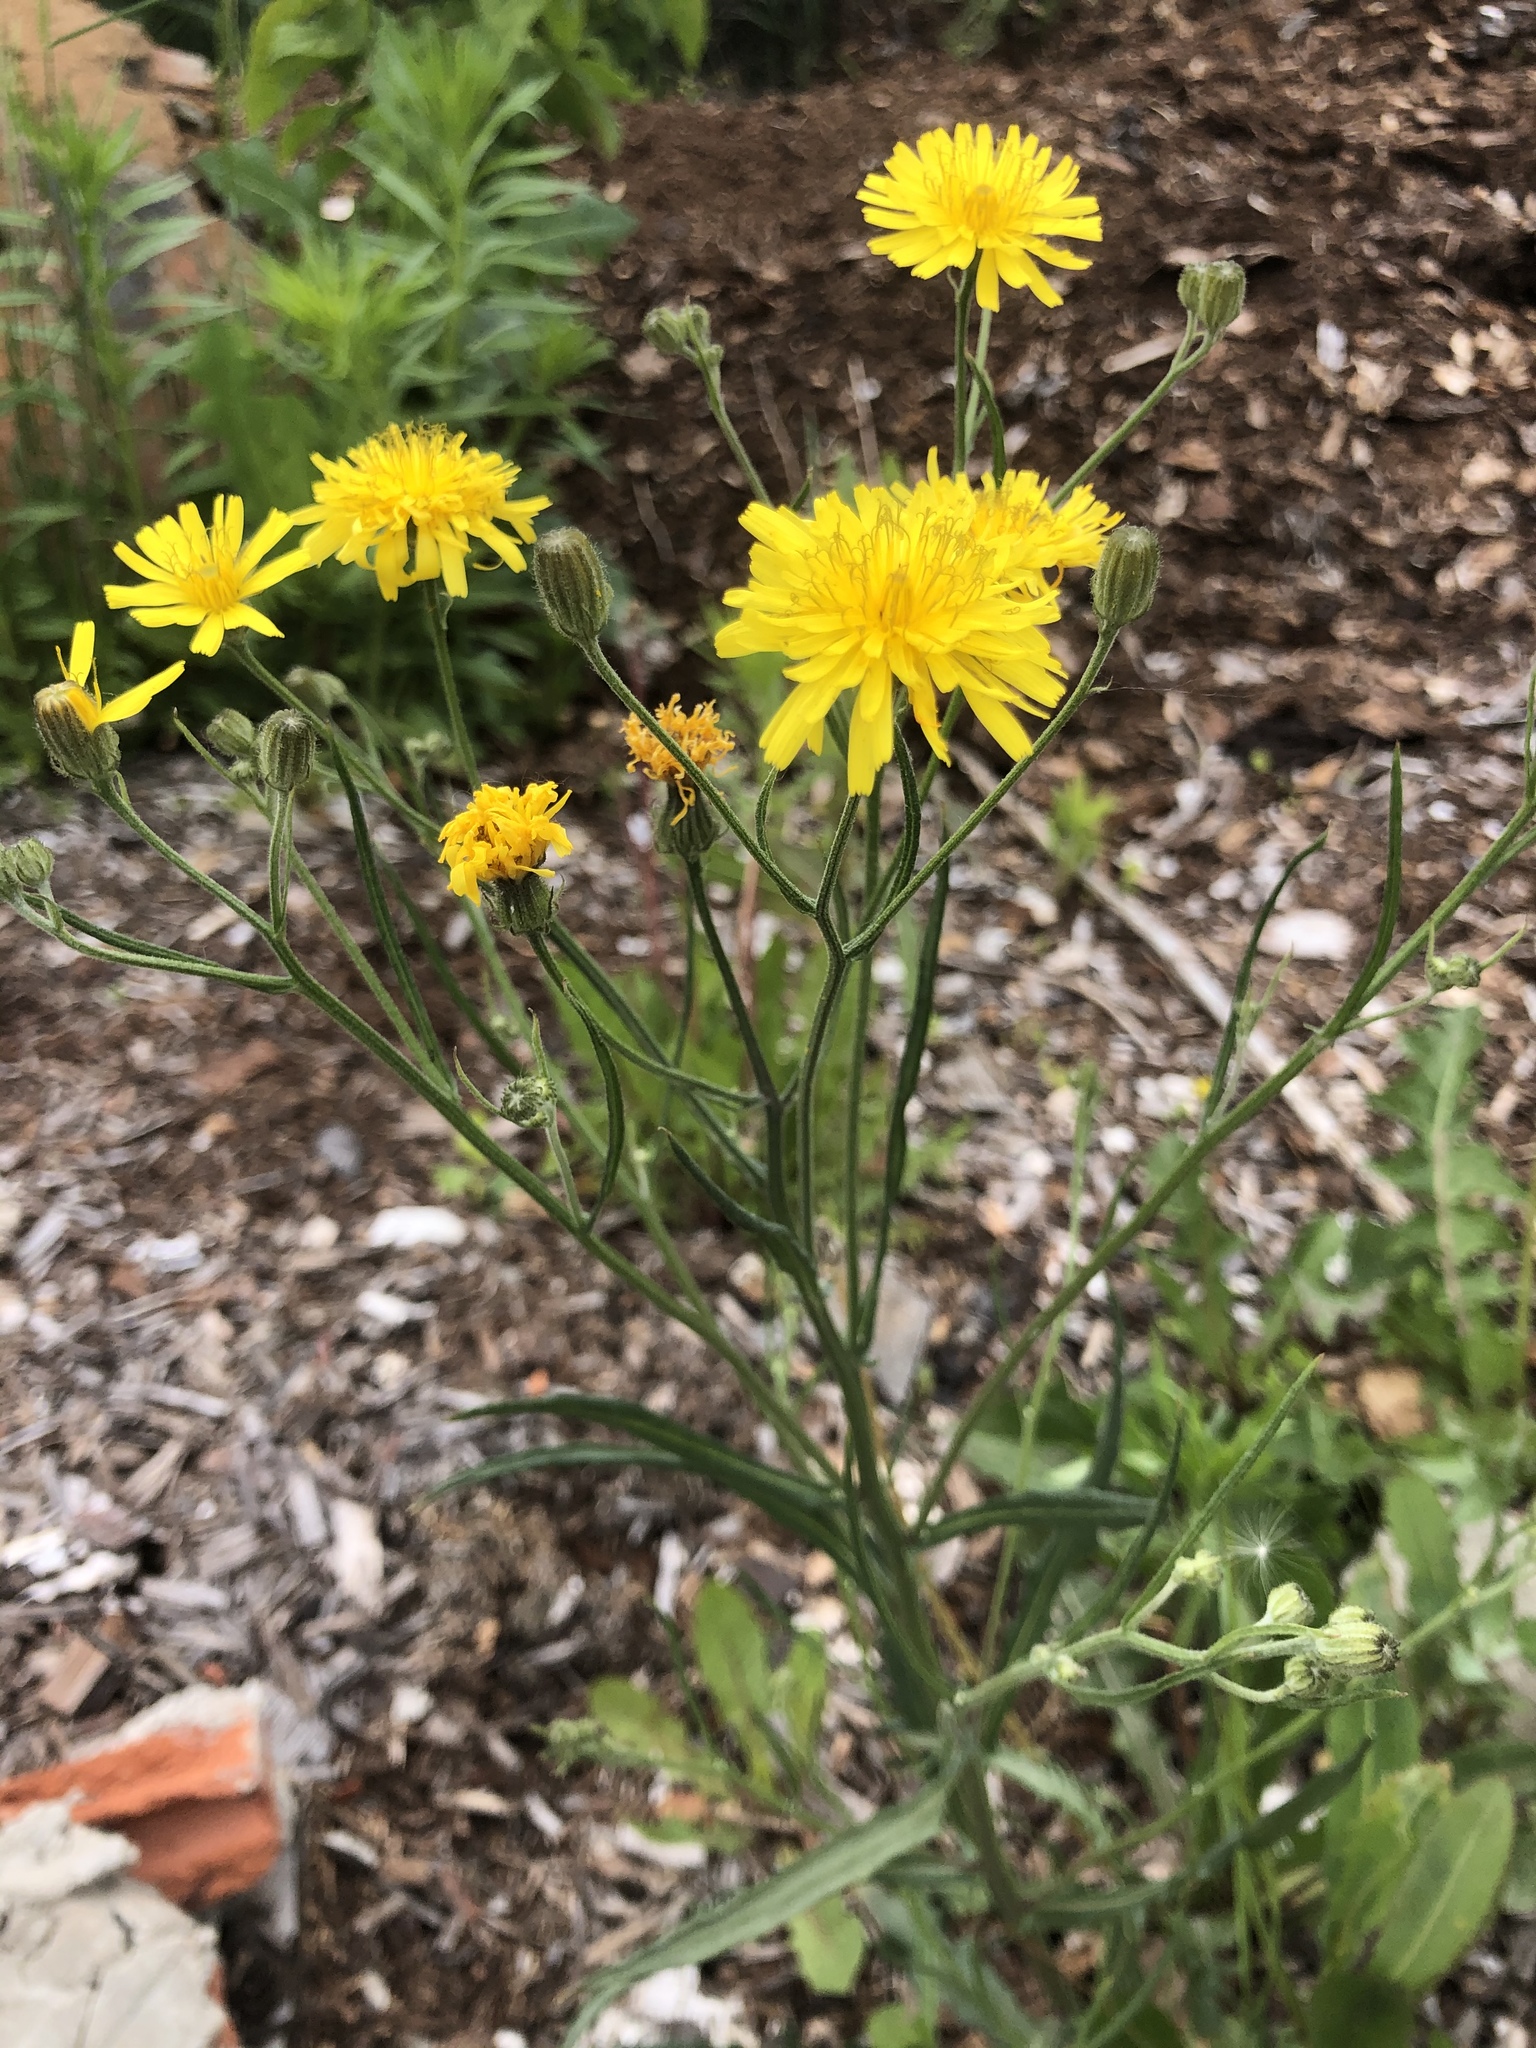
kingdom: Plantae
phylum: Tracheophyta
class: Magnoliopsida
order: Asterales
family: Asteraceae
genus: Crepis
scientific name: Crepis tectorum
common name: Narrow-leaved hawk's-beard
